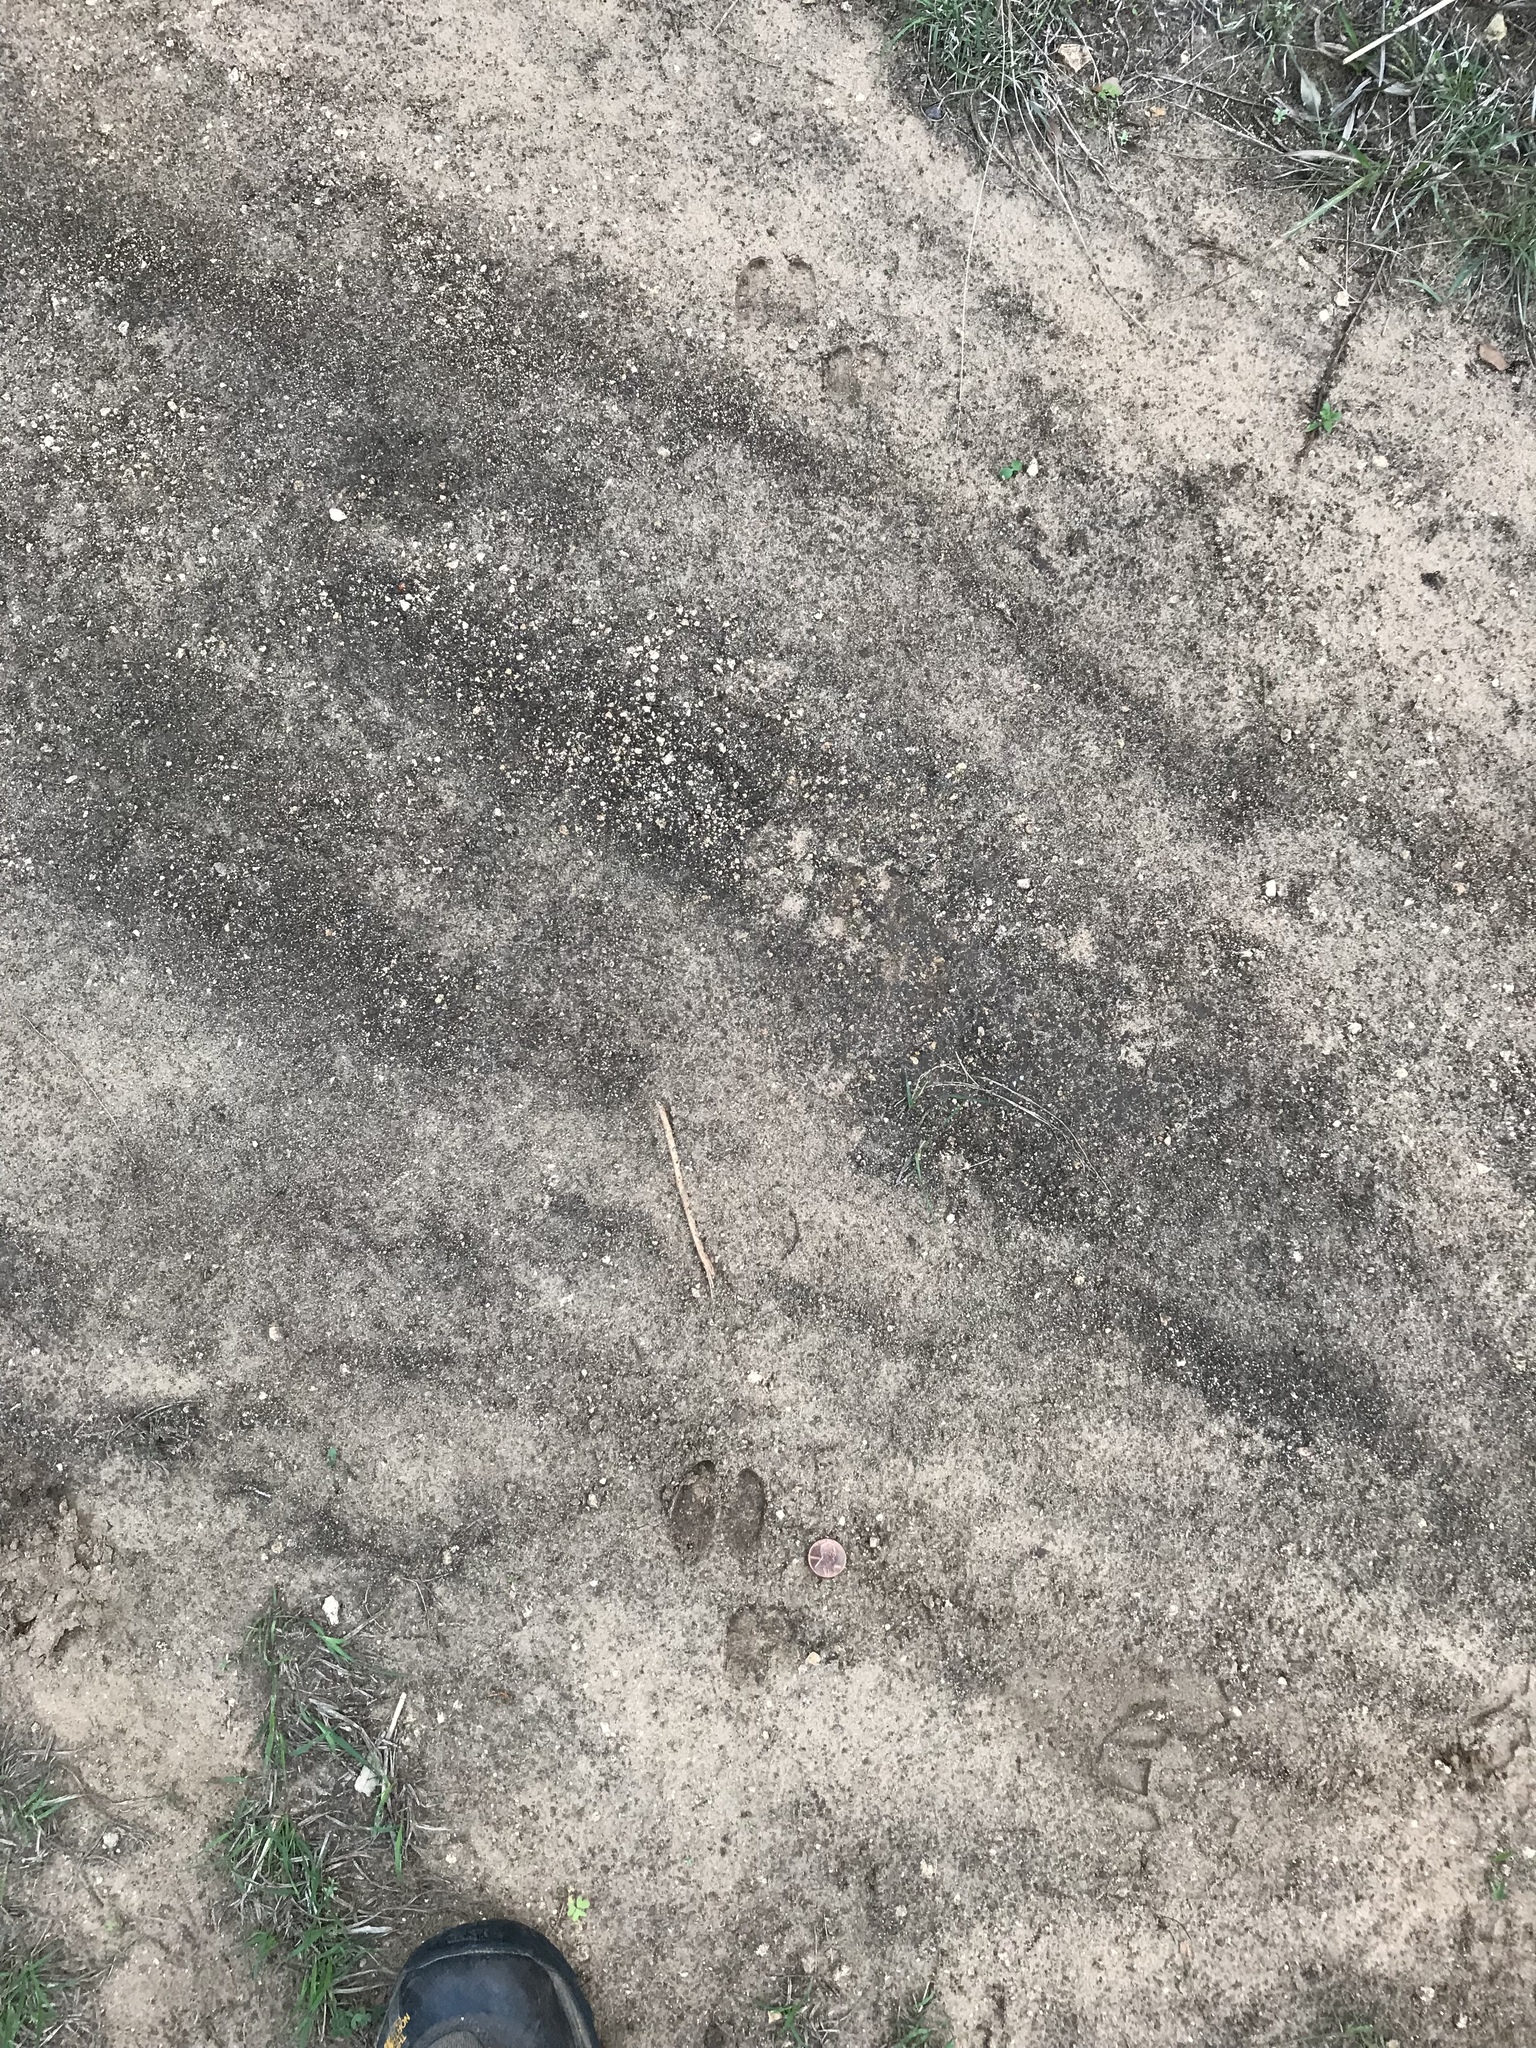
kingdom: Animalia
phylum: Chordata
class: Mammalia
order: Artiodactyla
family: Suidae
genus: Sus
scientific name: Sus scrofa
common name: Wild boar
